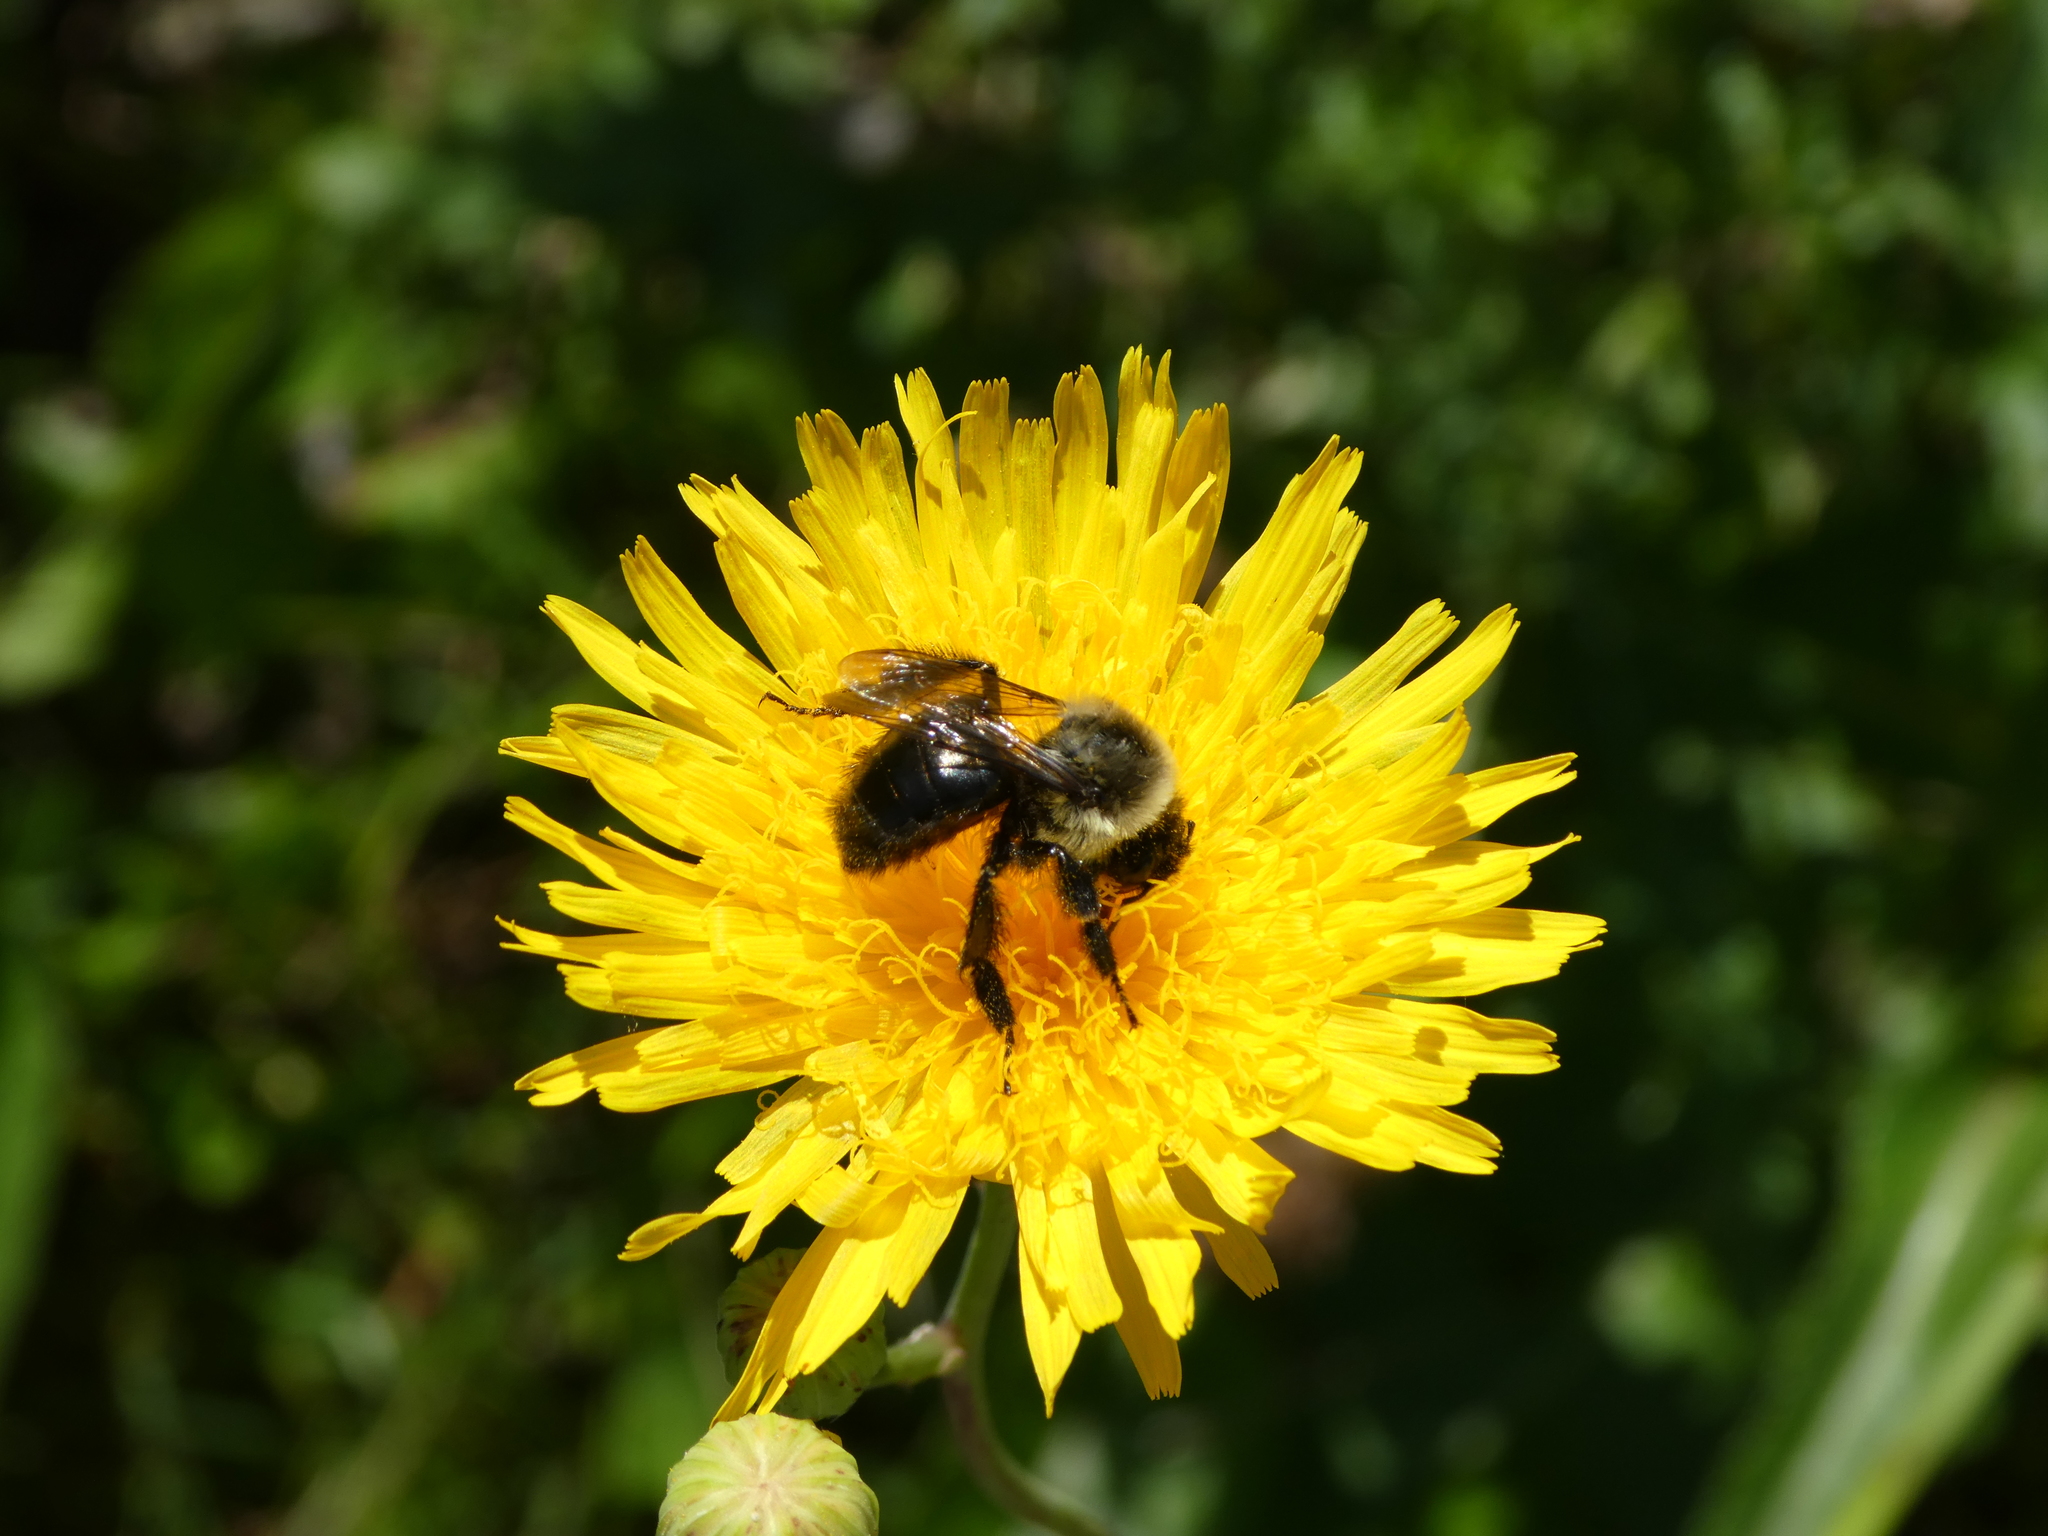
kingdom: Animalia
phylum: Arthropoda
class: Insecta
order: Hymenoptera
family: Apidae
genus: Bombus
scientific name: Bombus impatiens
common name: Common eastern bumble bee
